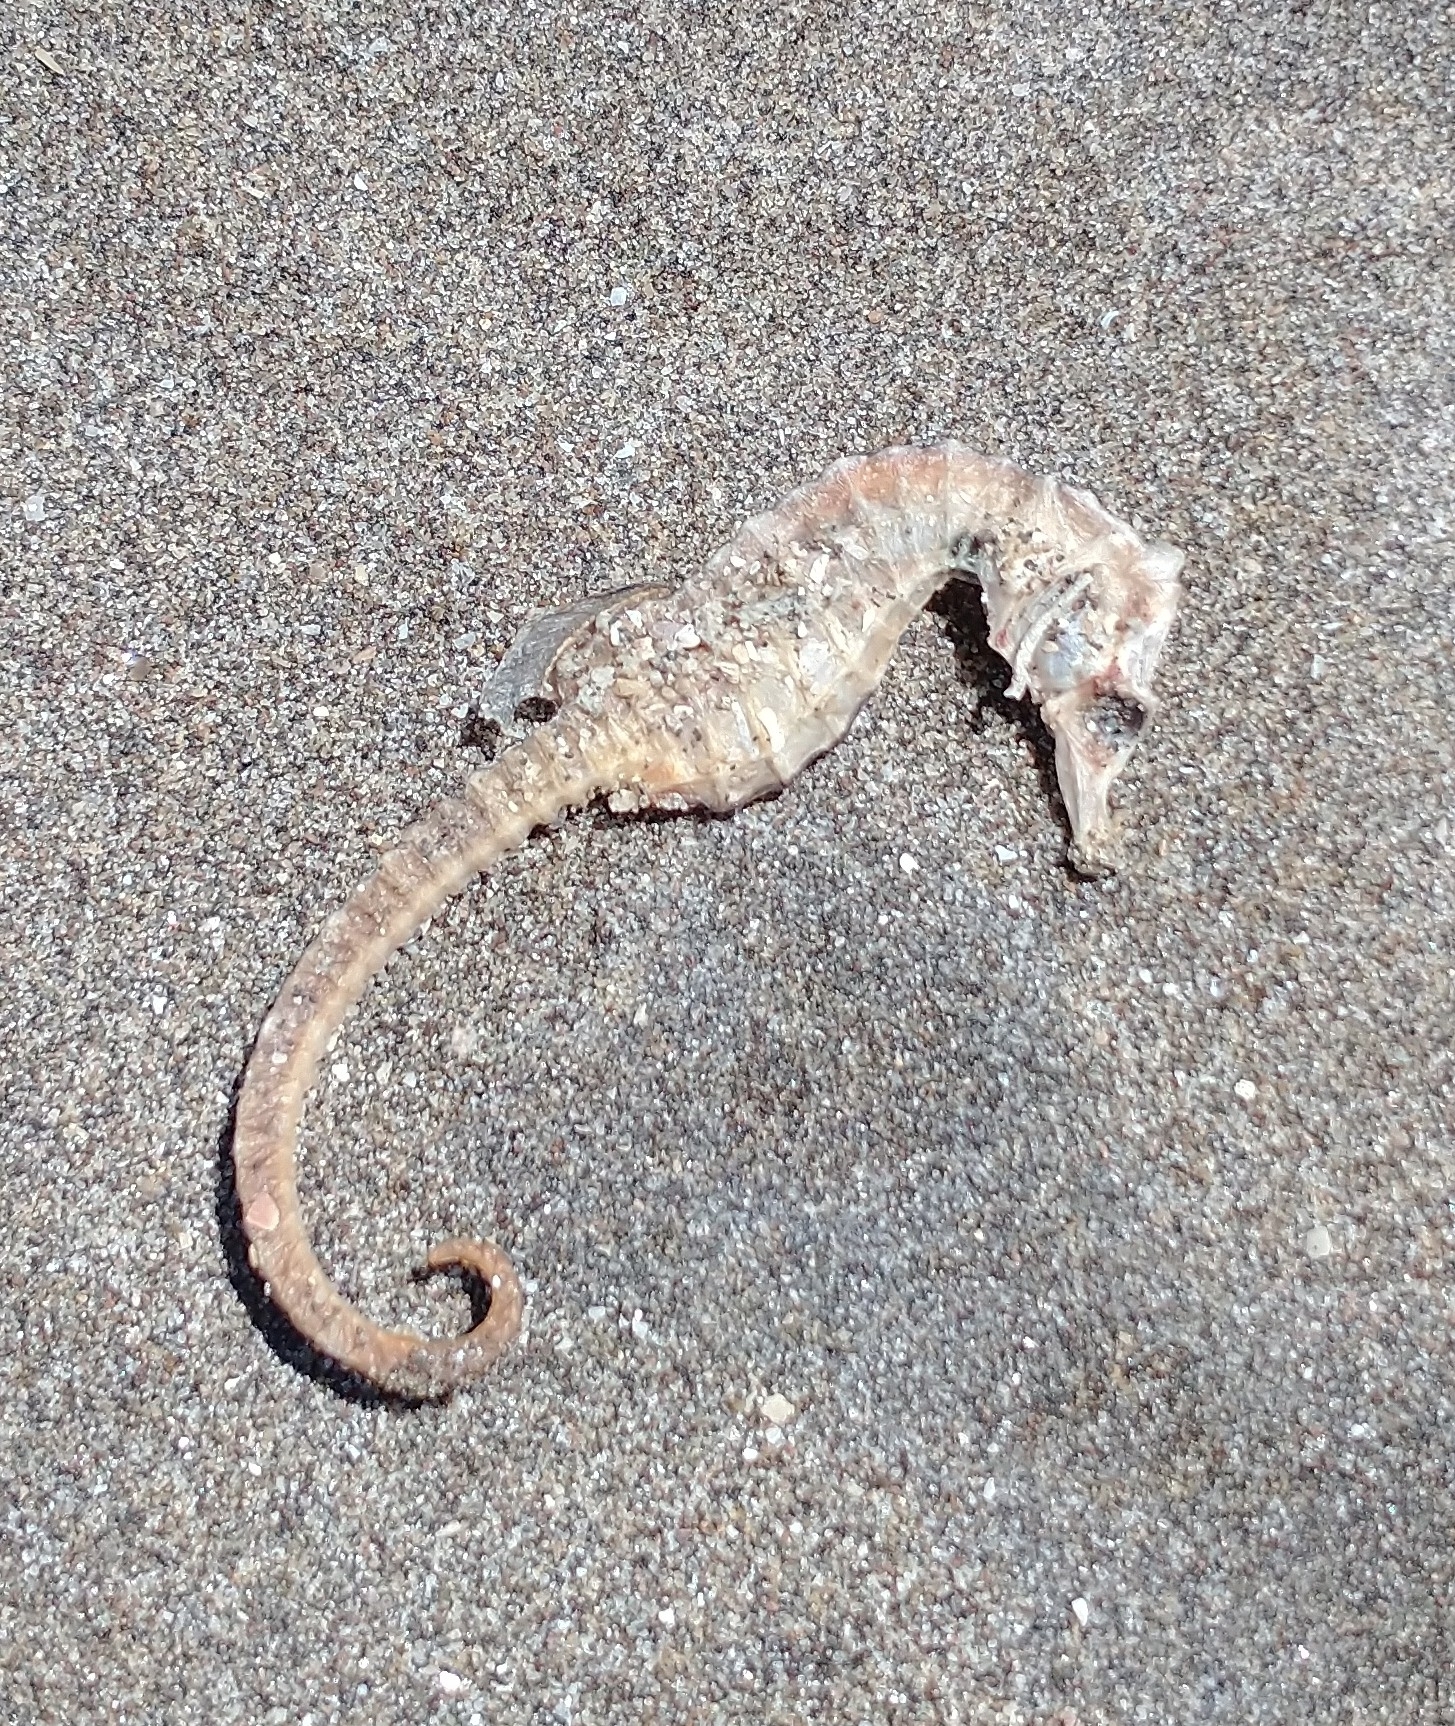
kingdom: Animalia
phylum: Chordata
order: Syngnathiformes
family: Syngnathidae
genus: Hippocampus
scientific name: Hippocampus patagonicus
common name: Patagonian sea-horse
